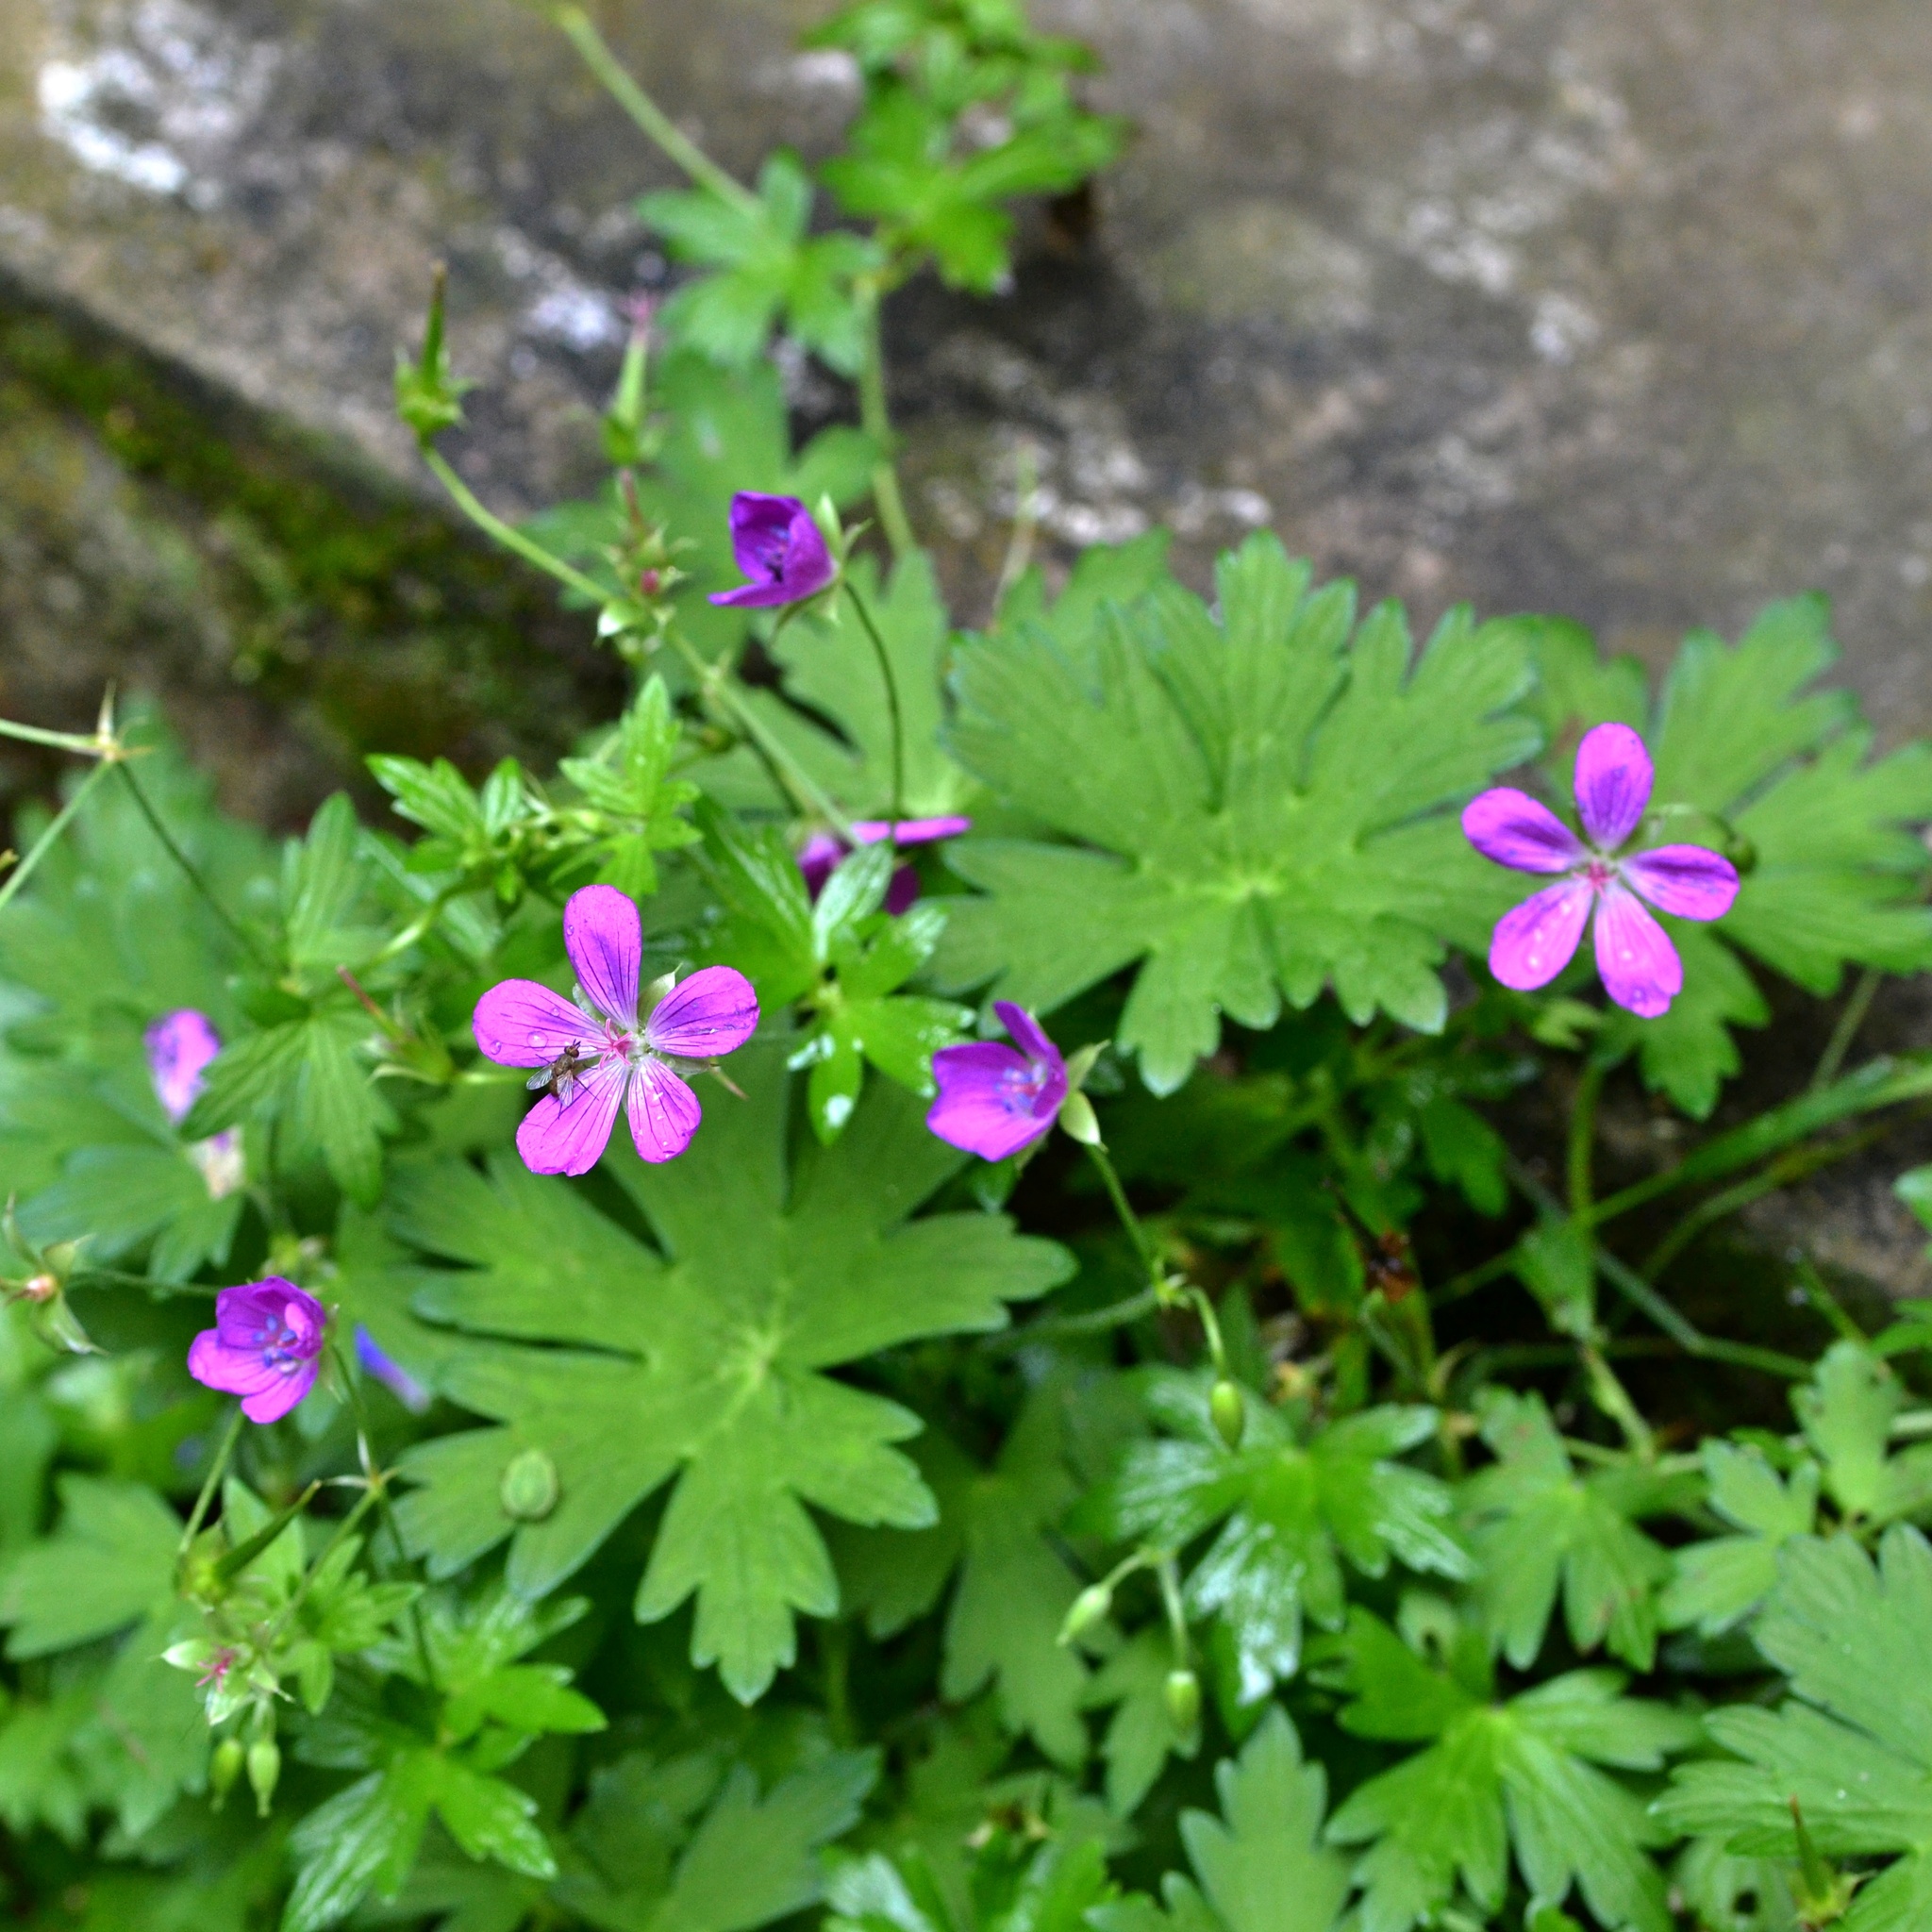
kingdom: Plantae
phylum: Tracheophyta
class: Magnoliopsida
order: Geraniales
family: Geraniaceae
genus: Geranium
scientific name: Geranium palustre
